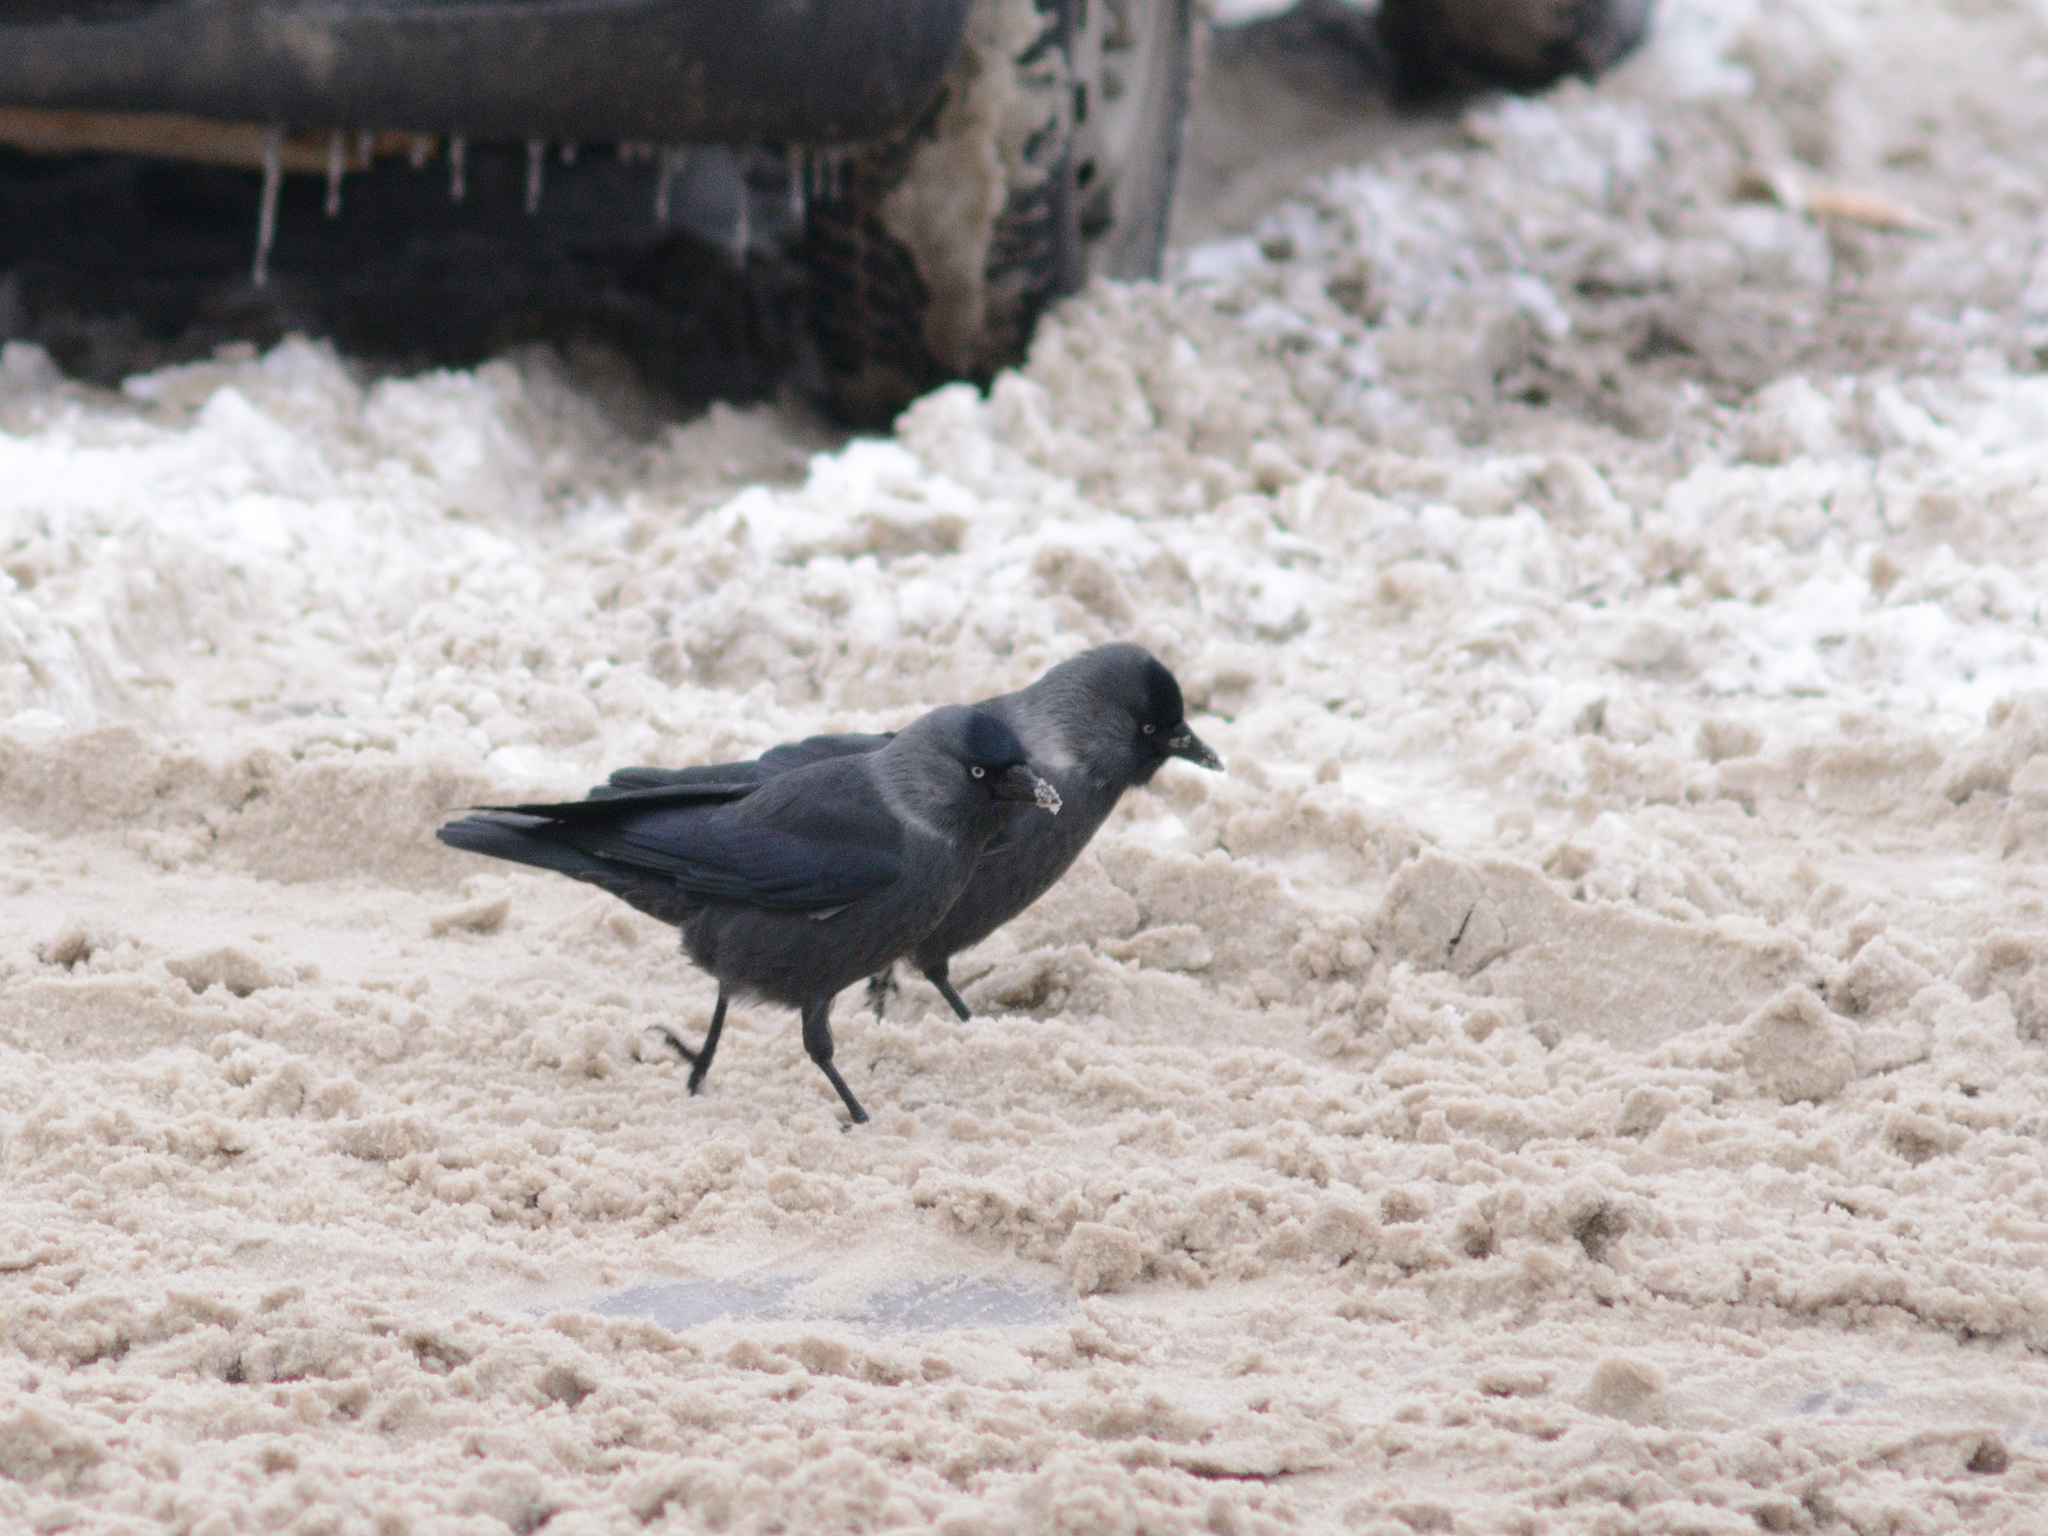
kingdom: Animalia
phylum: Chordata
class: Aves
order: Passeriformes
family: Corvidae
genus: Coloeus
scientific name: Coloeus monedula
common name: Western jackdaw
